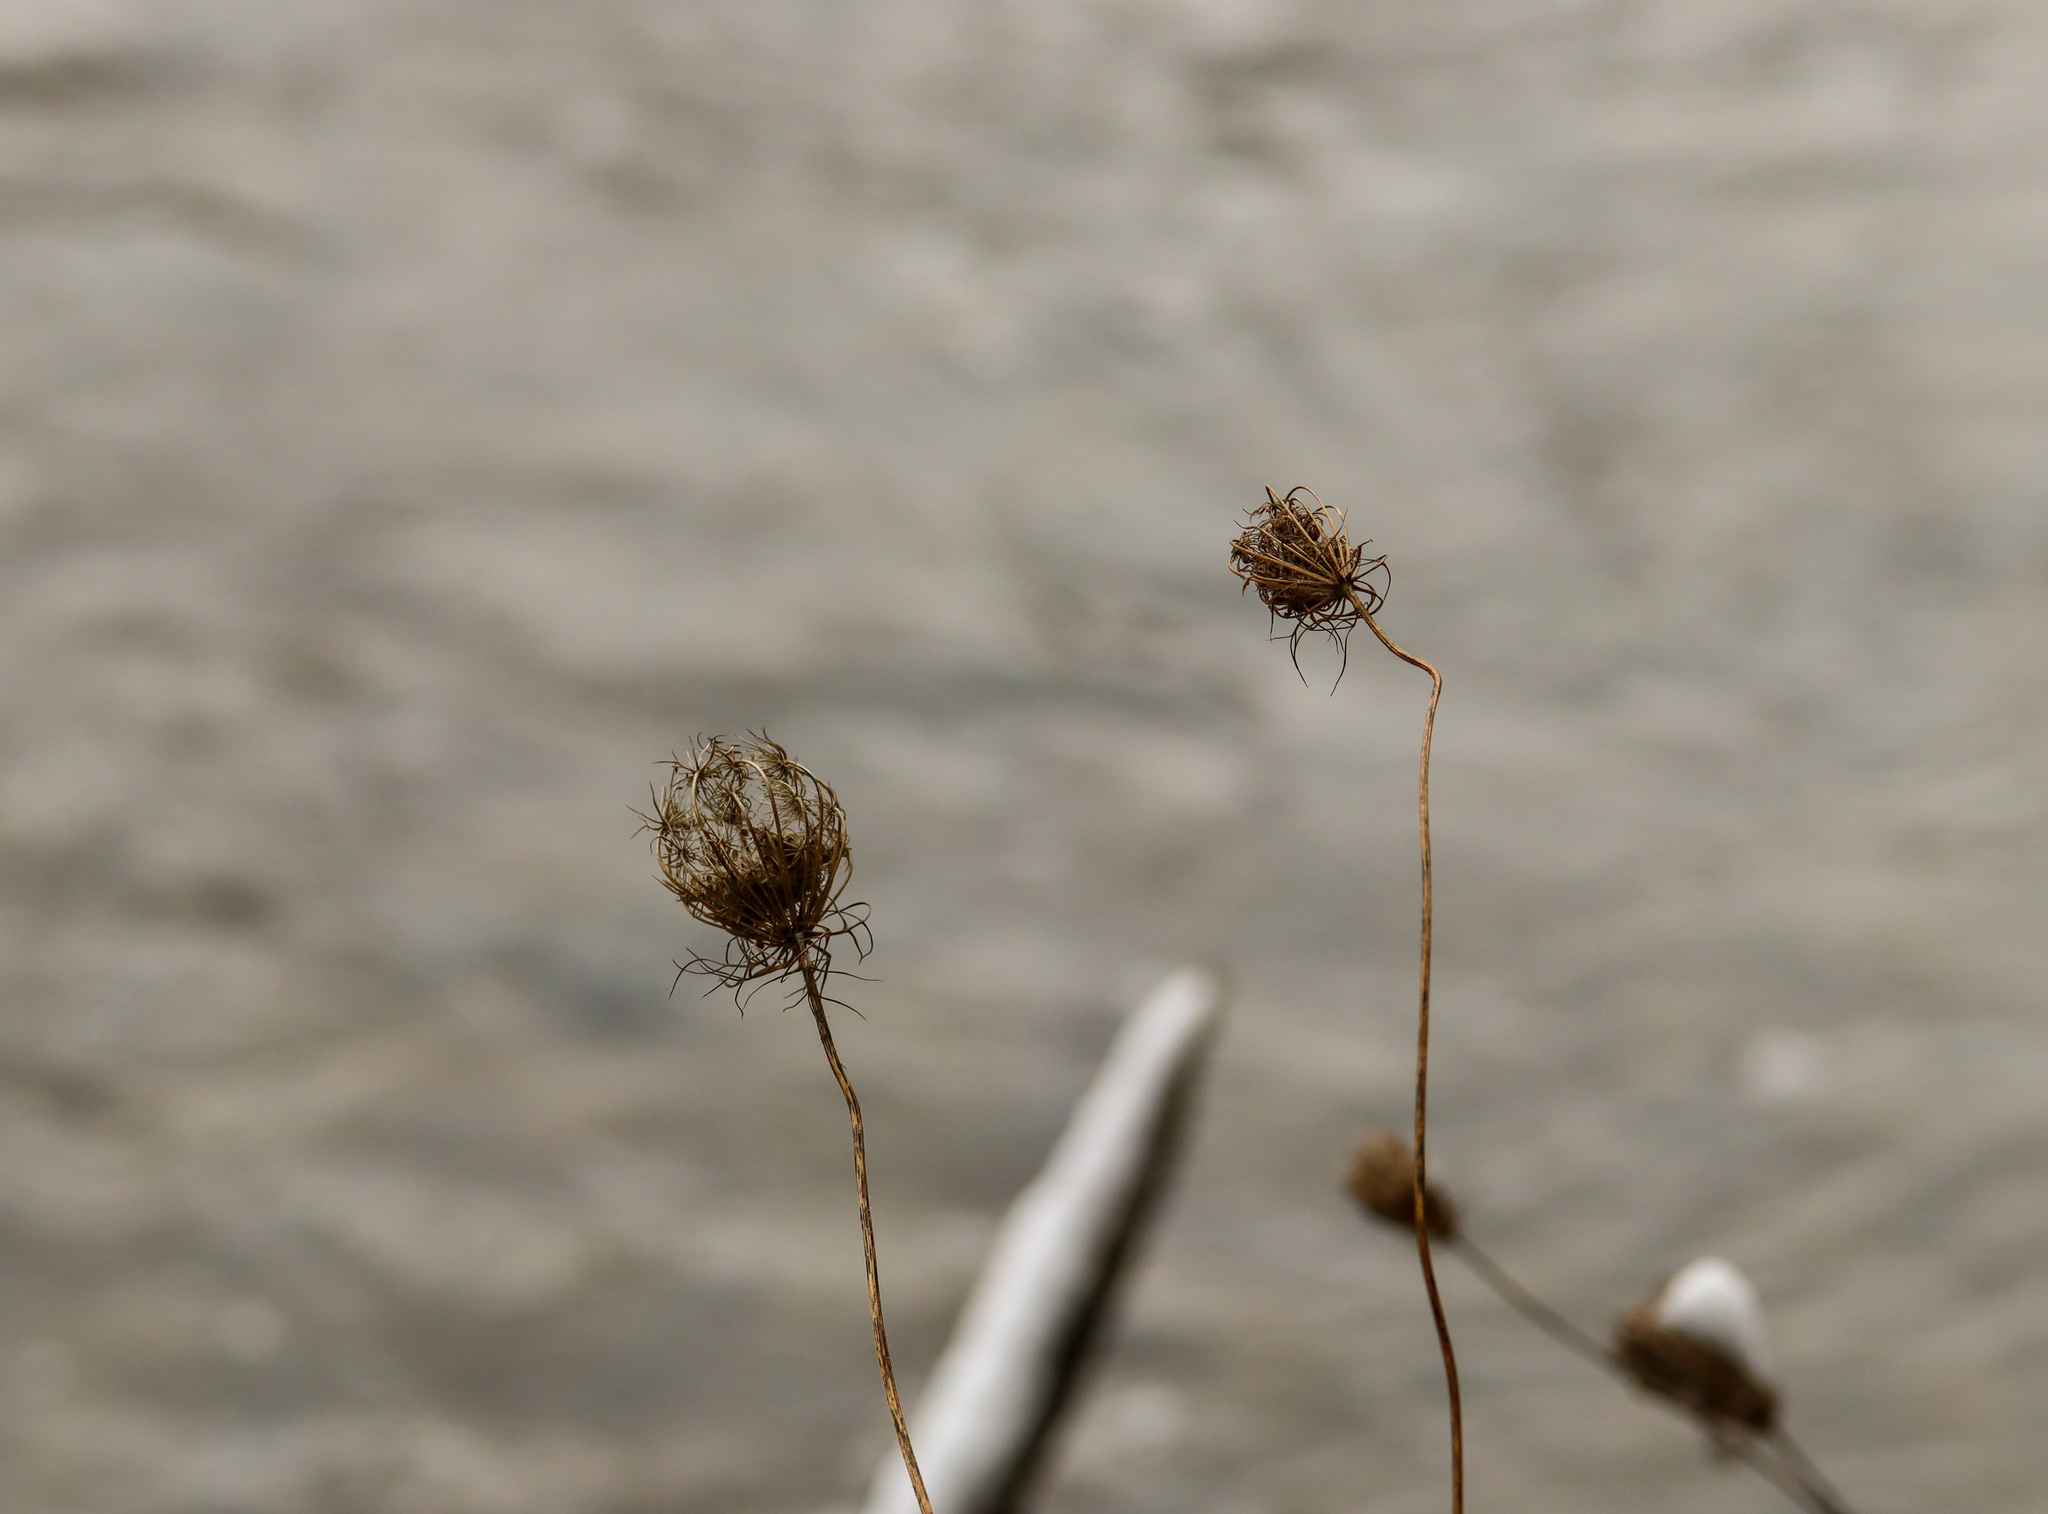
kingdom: Plantae
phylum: Tracheophyta
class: Magnoliopsida
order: Apiales
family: Apiaceae
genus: Daucus
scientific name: Daucus carota
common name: Wild carrot
